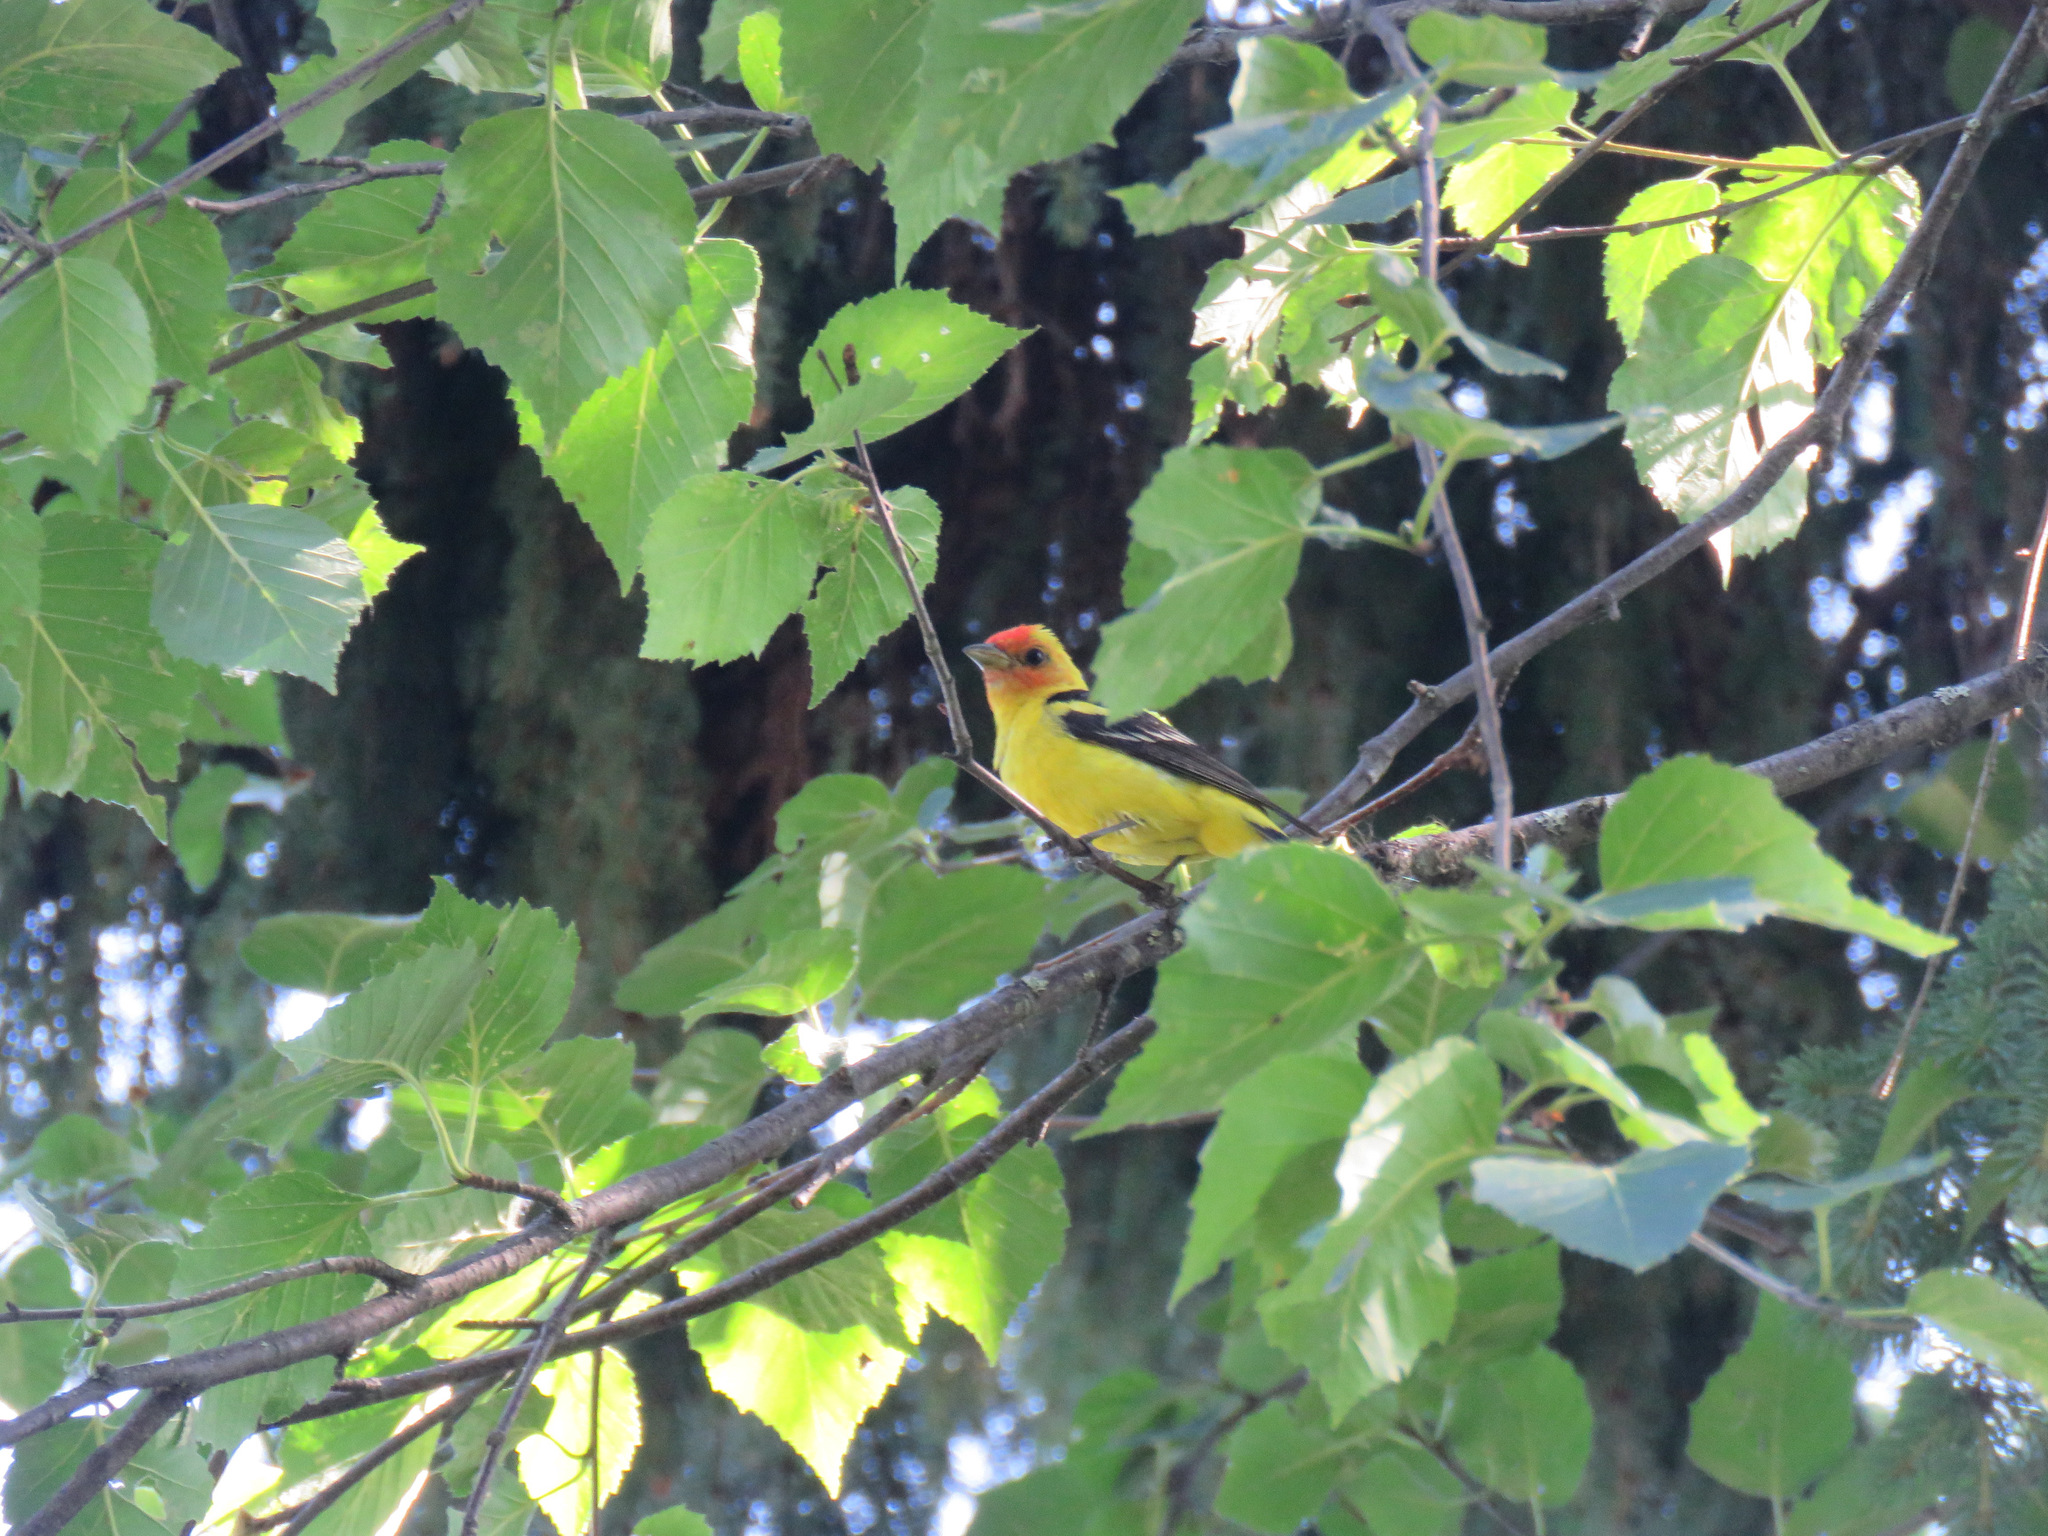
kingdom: Animalia
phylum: Chordata
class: Aves
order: Passeriformes
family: Cardinalidae
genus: Piranga
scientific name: Piranga ludoviciana
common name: Western tanager
